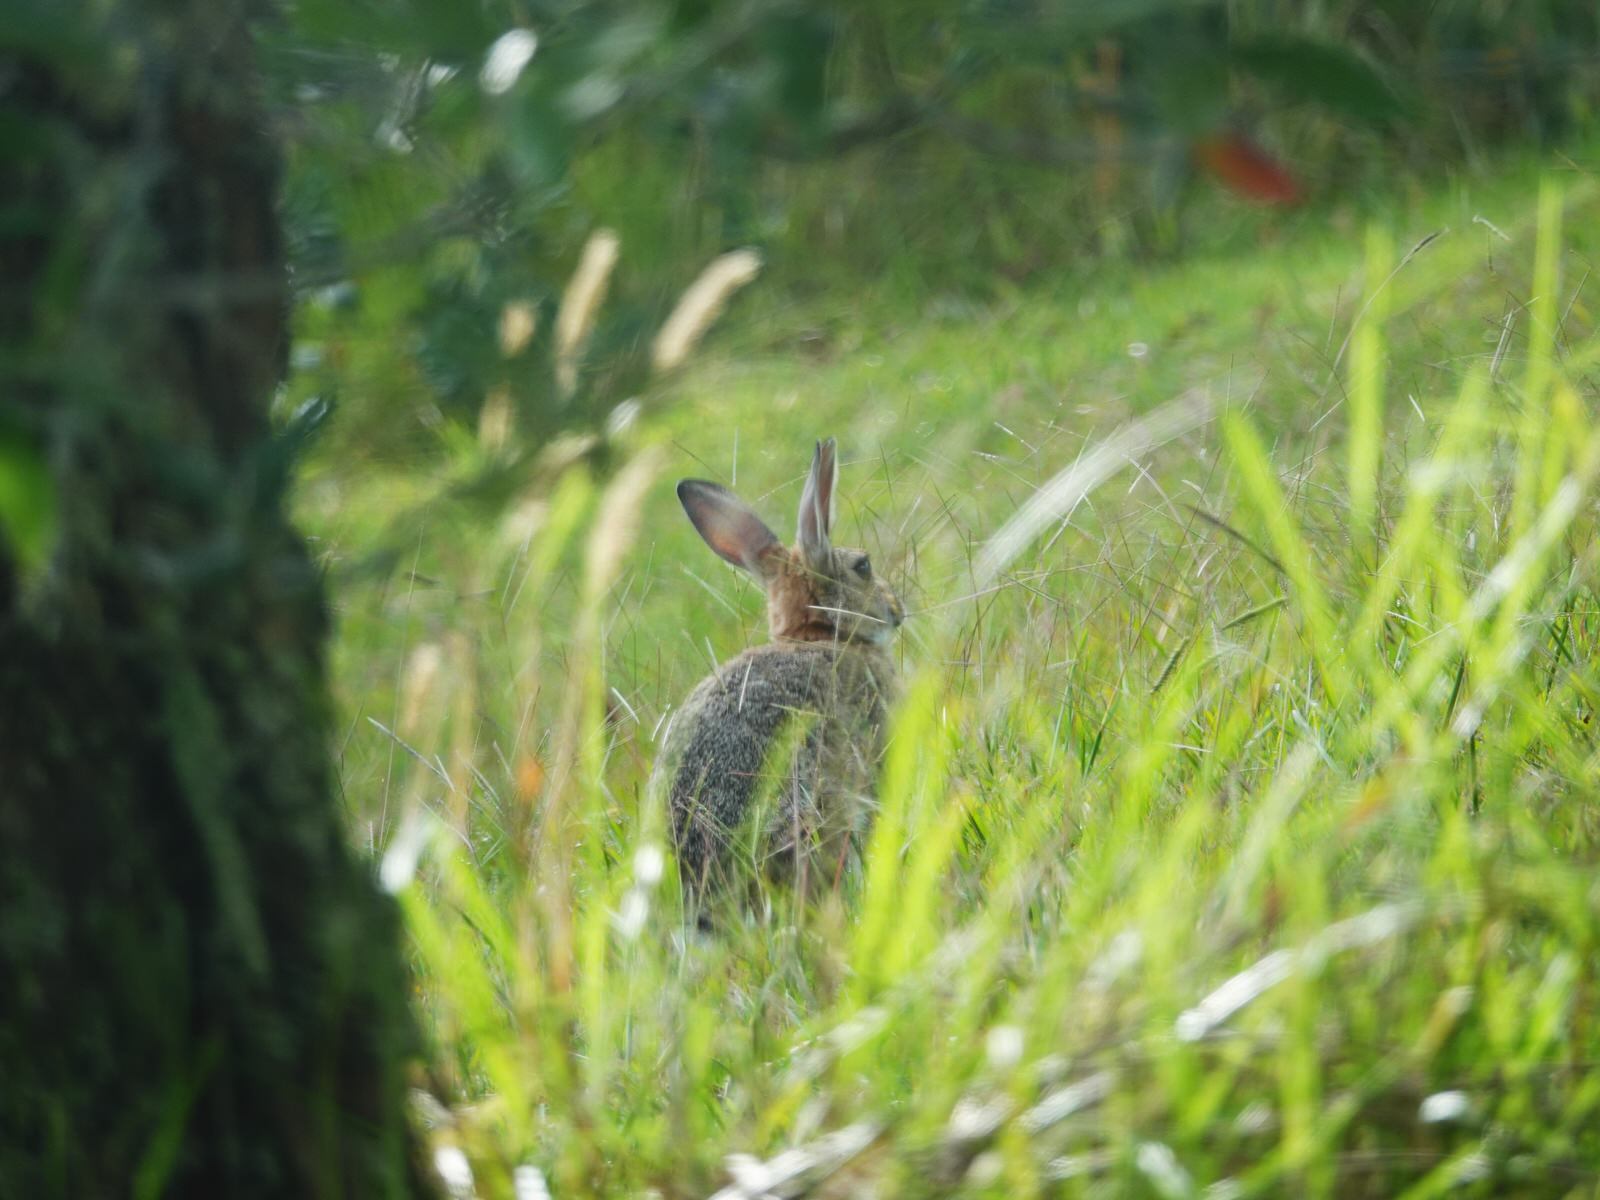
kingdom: Animalia
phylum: Chordata
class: Mammalia
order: Lagomorpha
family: Leporidae
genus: Oryctolagus
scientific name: Oryctolagus cuniculus
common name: European rabbit
